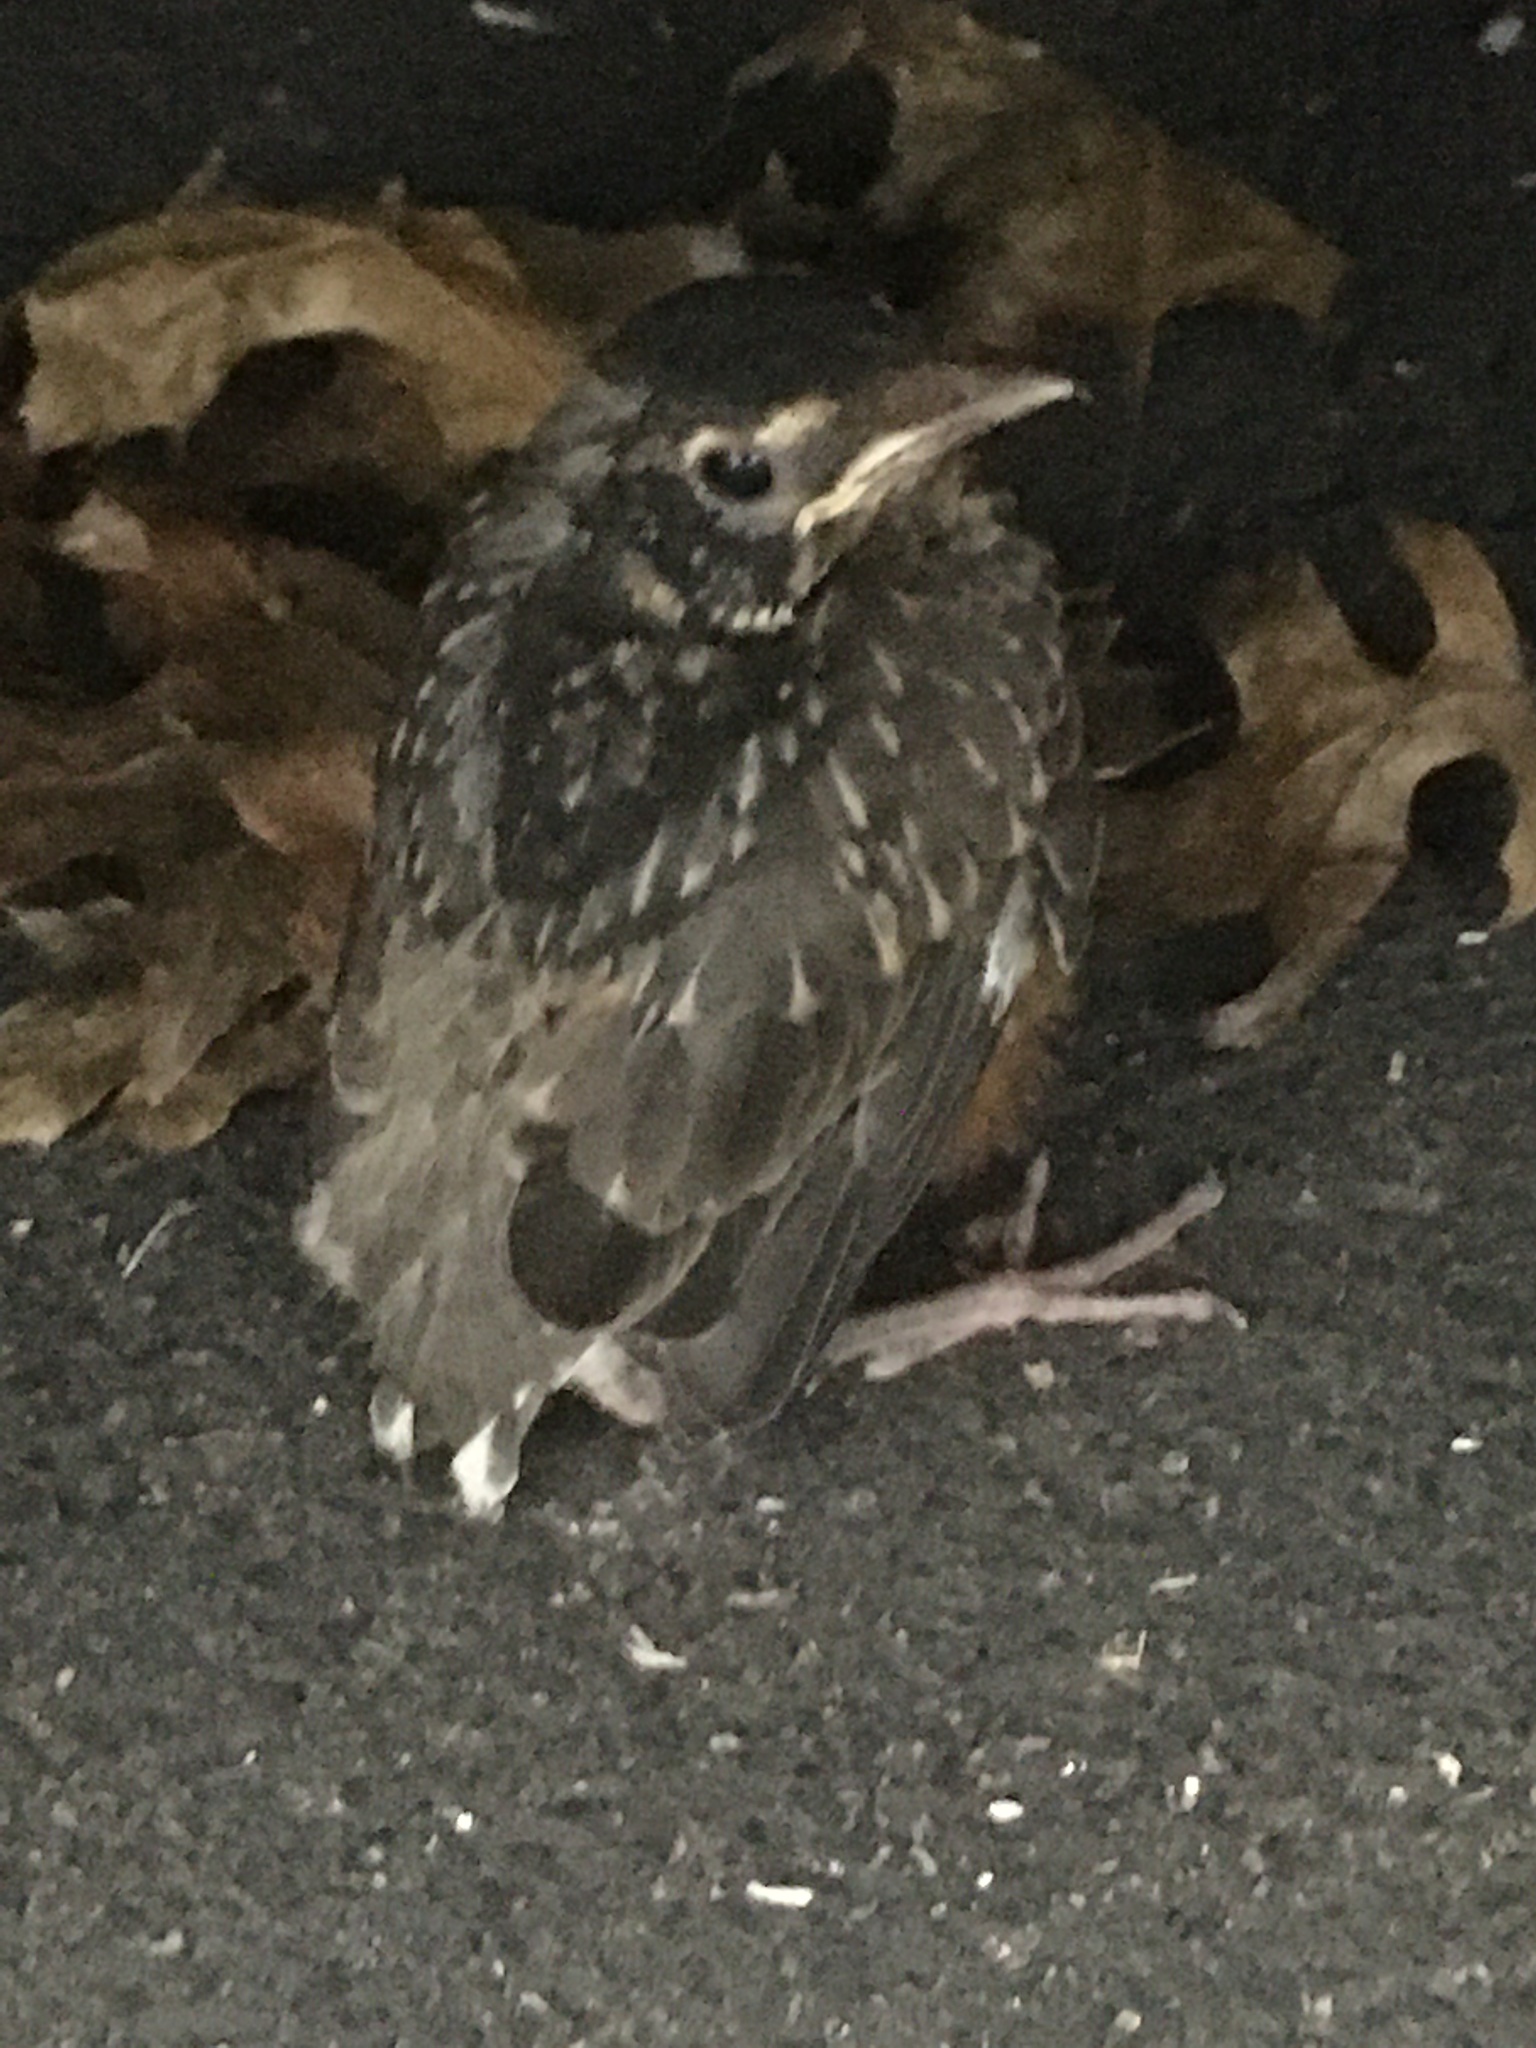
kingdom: Animalia
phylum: Chordata
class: Aves
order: Passeriformes
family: Turdidae
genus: Turdus
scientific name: Turdus migratorius
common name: American robin
